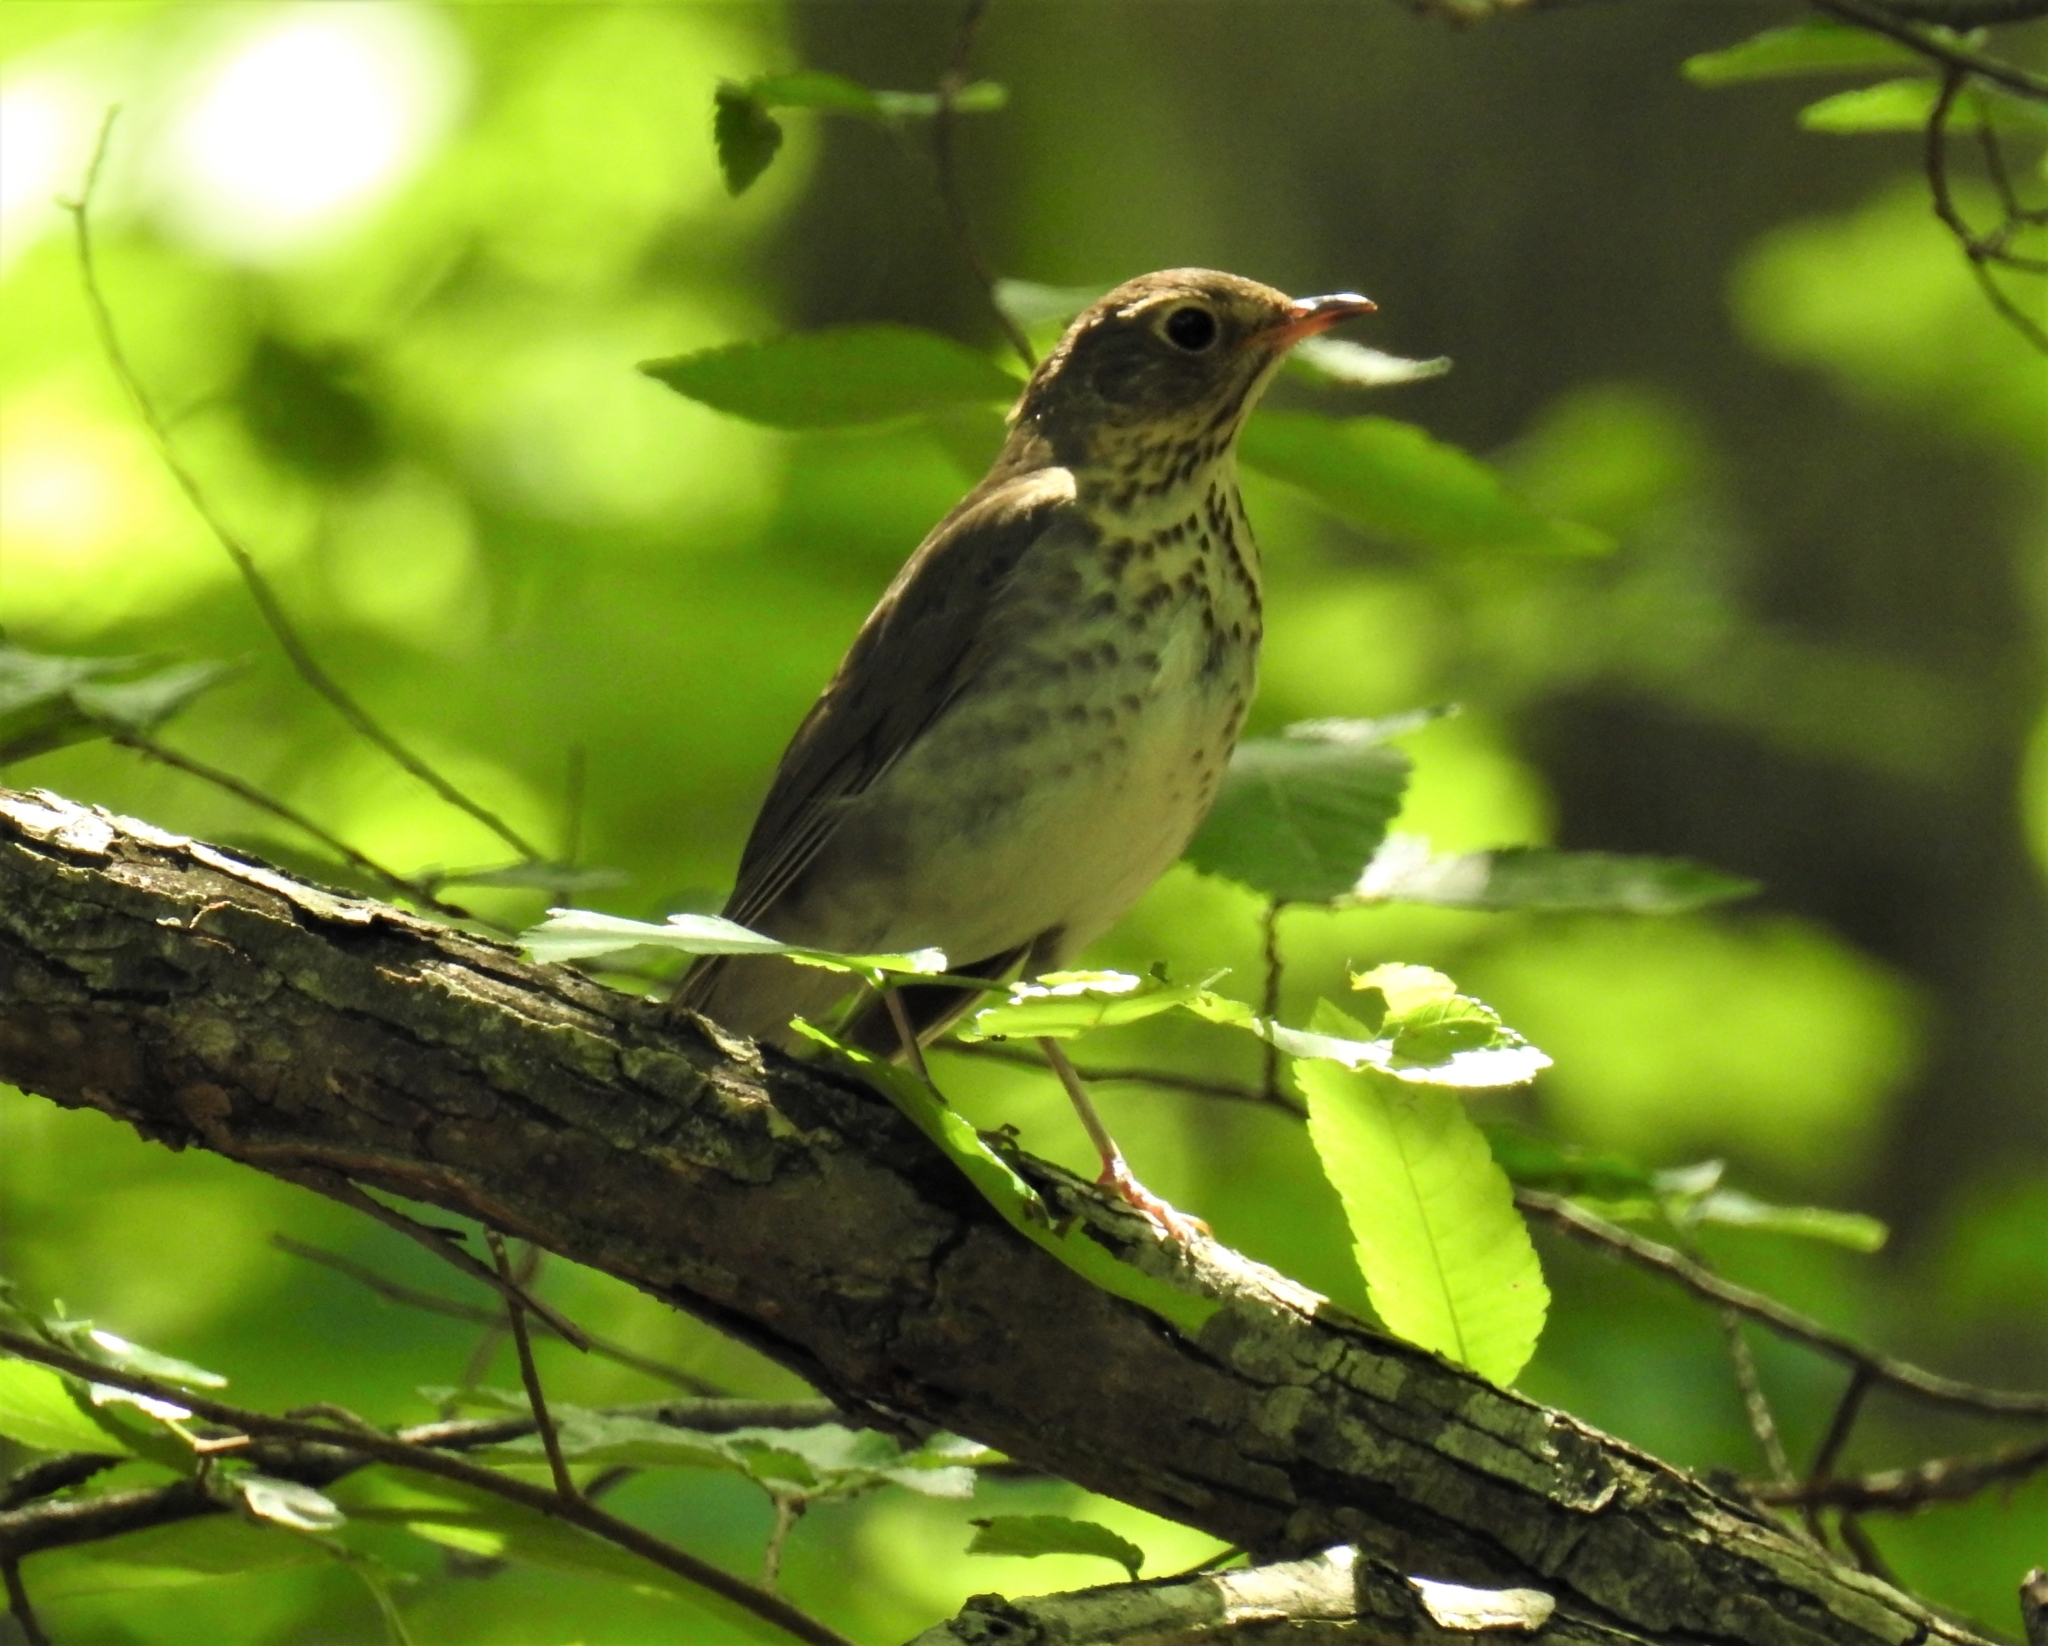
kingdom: Animalia
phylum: Chordata
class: Aves
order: Passeriformes
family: Turdidae
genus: Catharus
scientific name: Catharus minimus
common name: Grey-cheeked thrush
